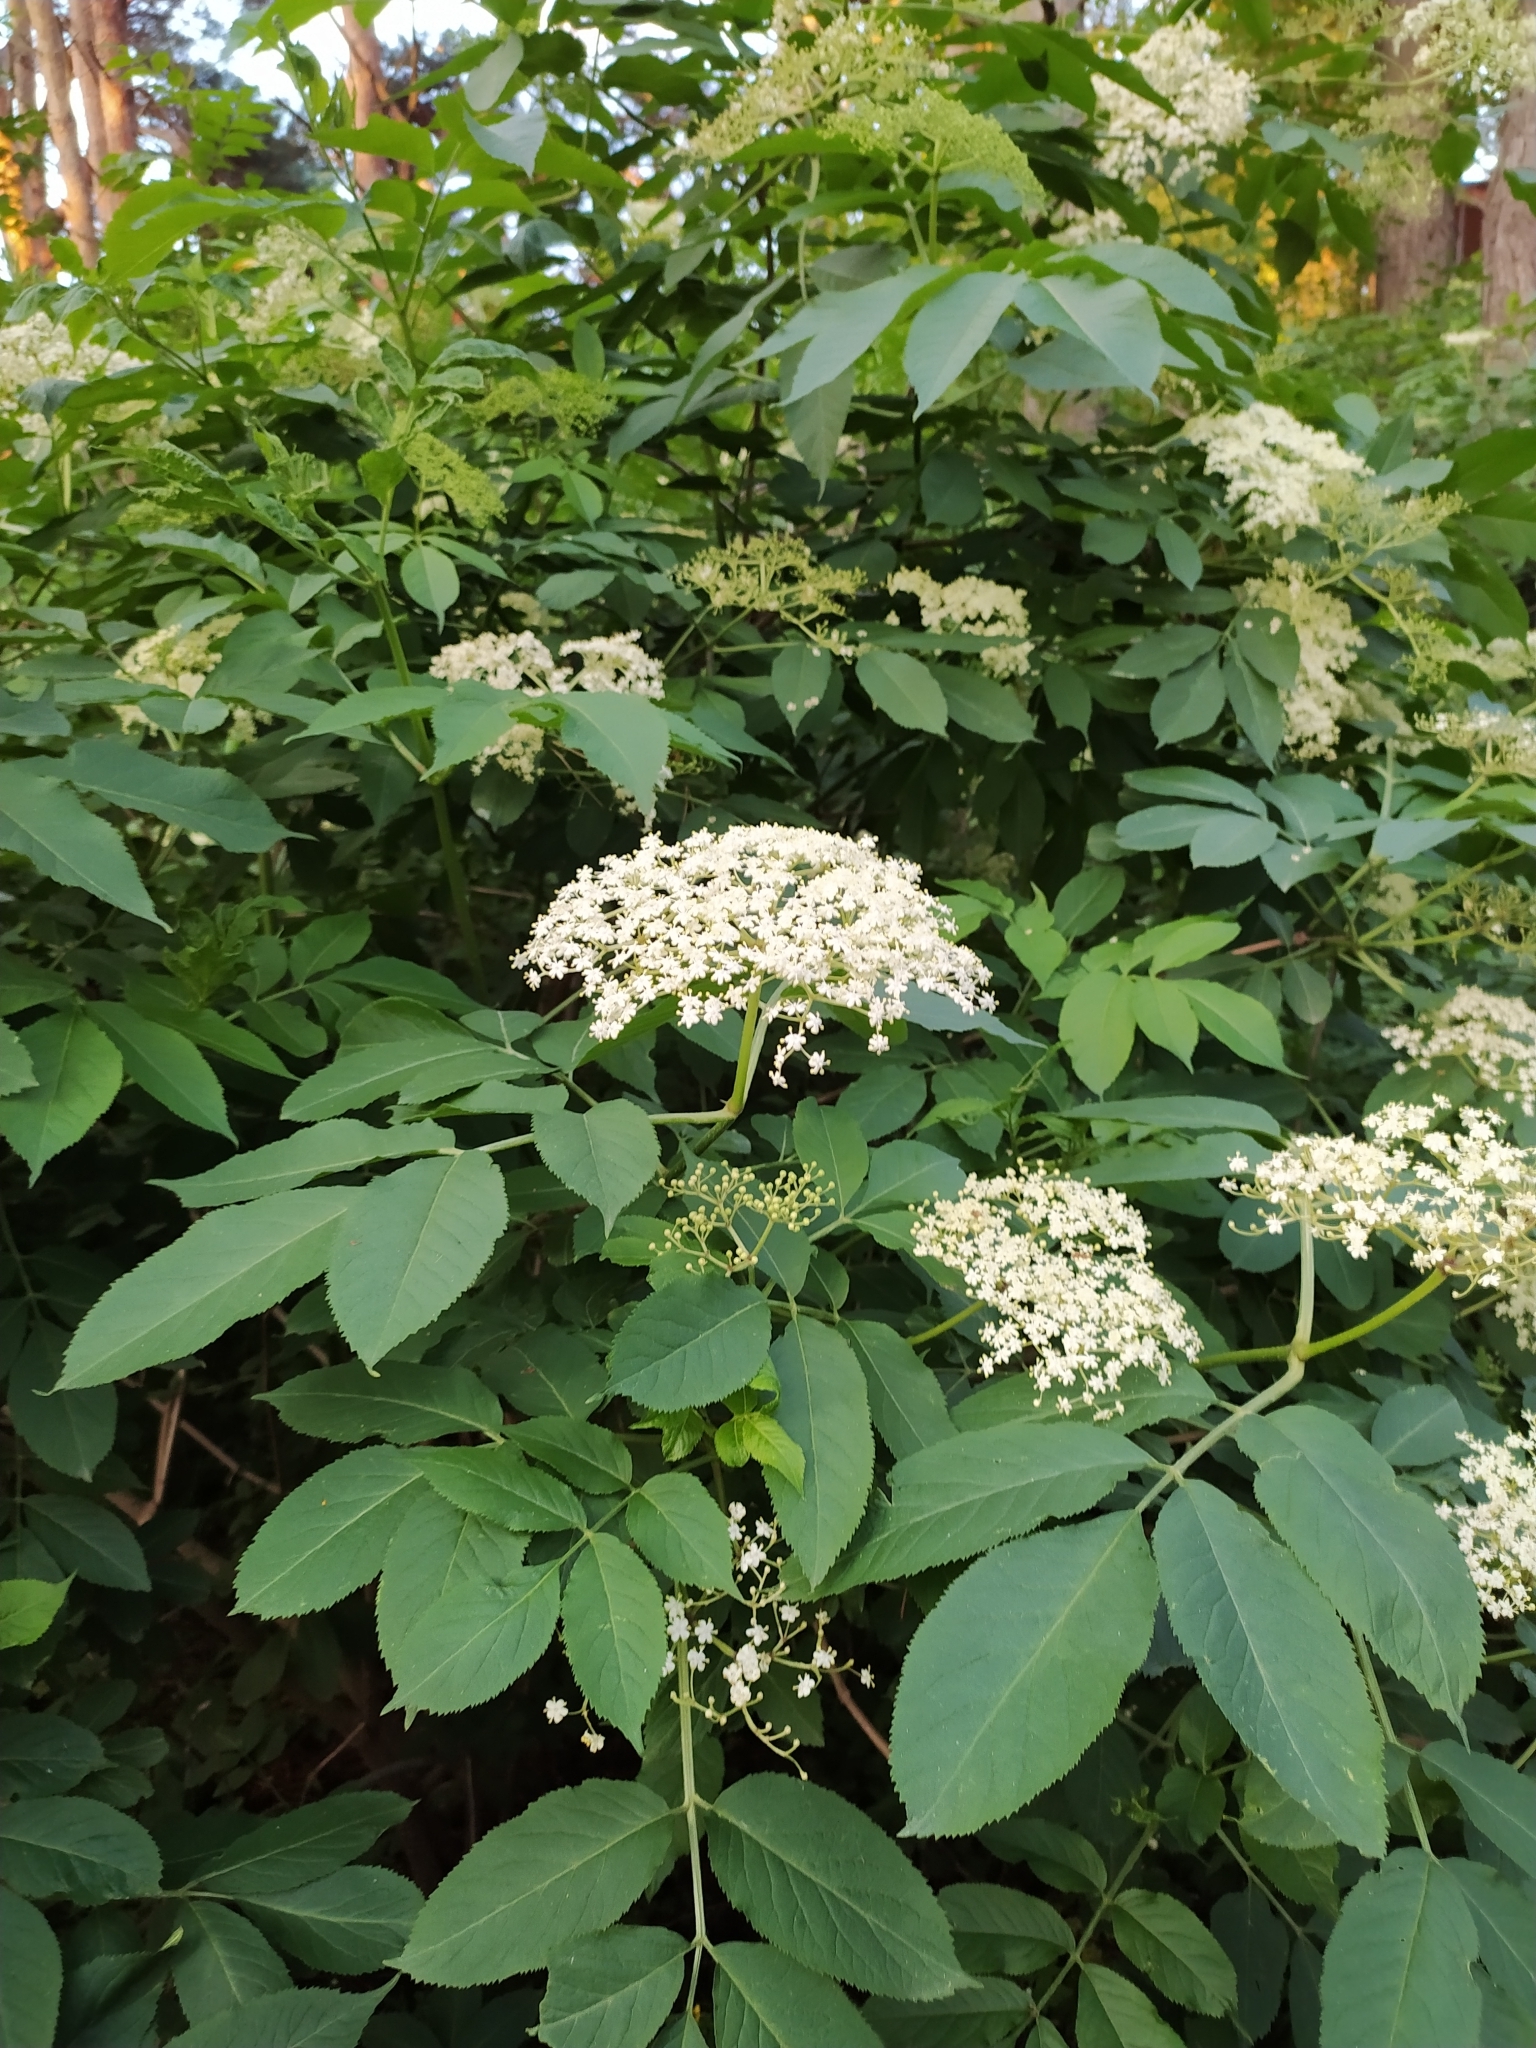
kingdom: Plantae
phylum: Tracheophyta
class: Magnoliopsida
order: Dipsacales
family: Viburnaceae
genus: Sambucus
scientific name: Sambucus nigra
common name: Elder
